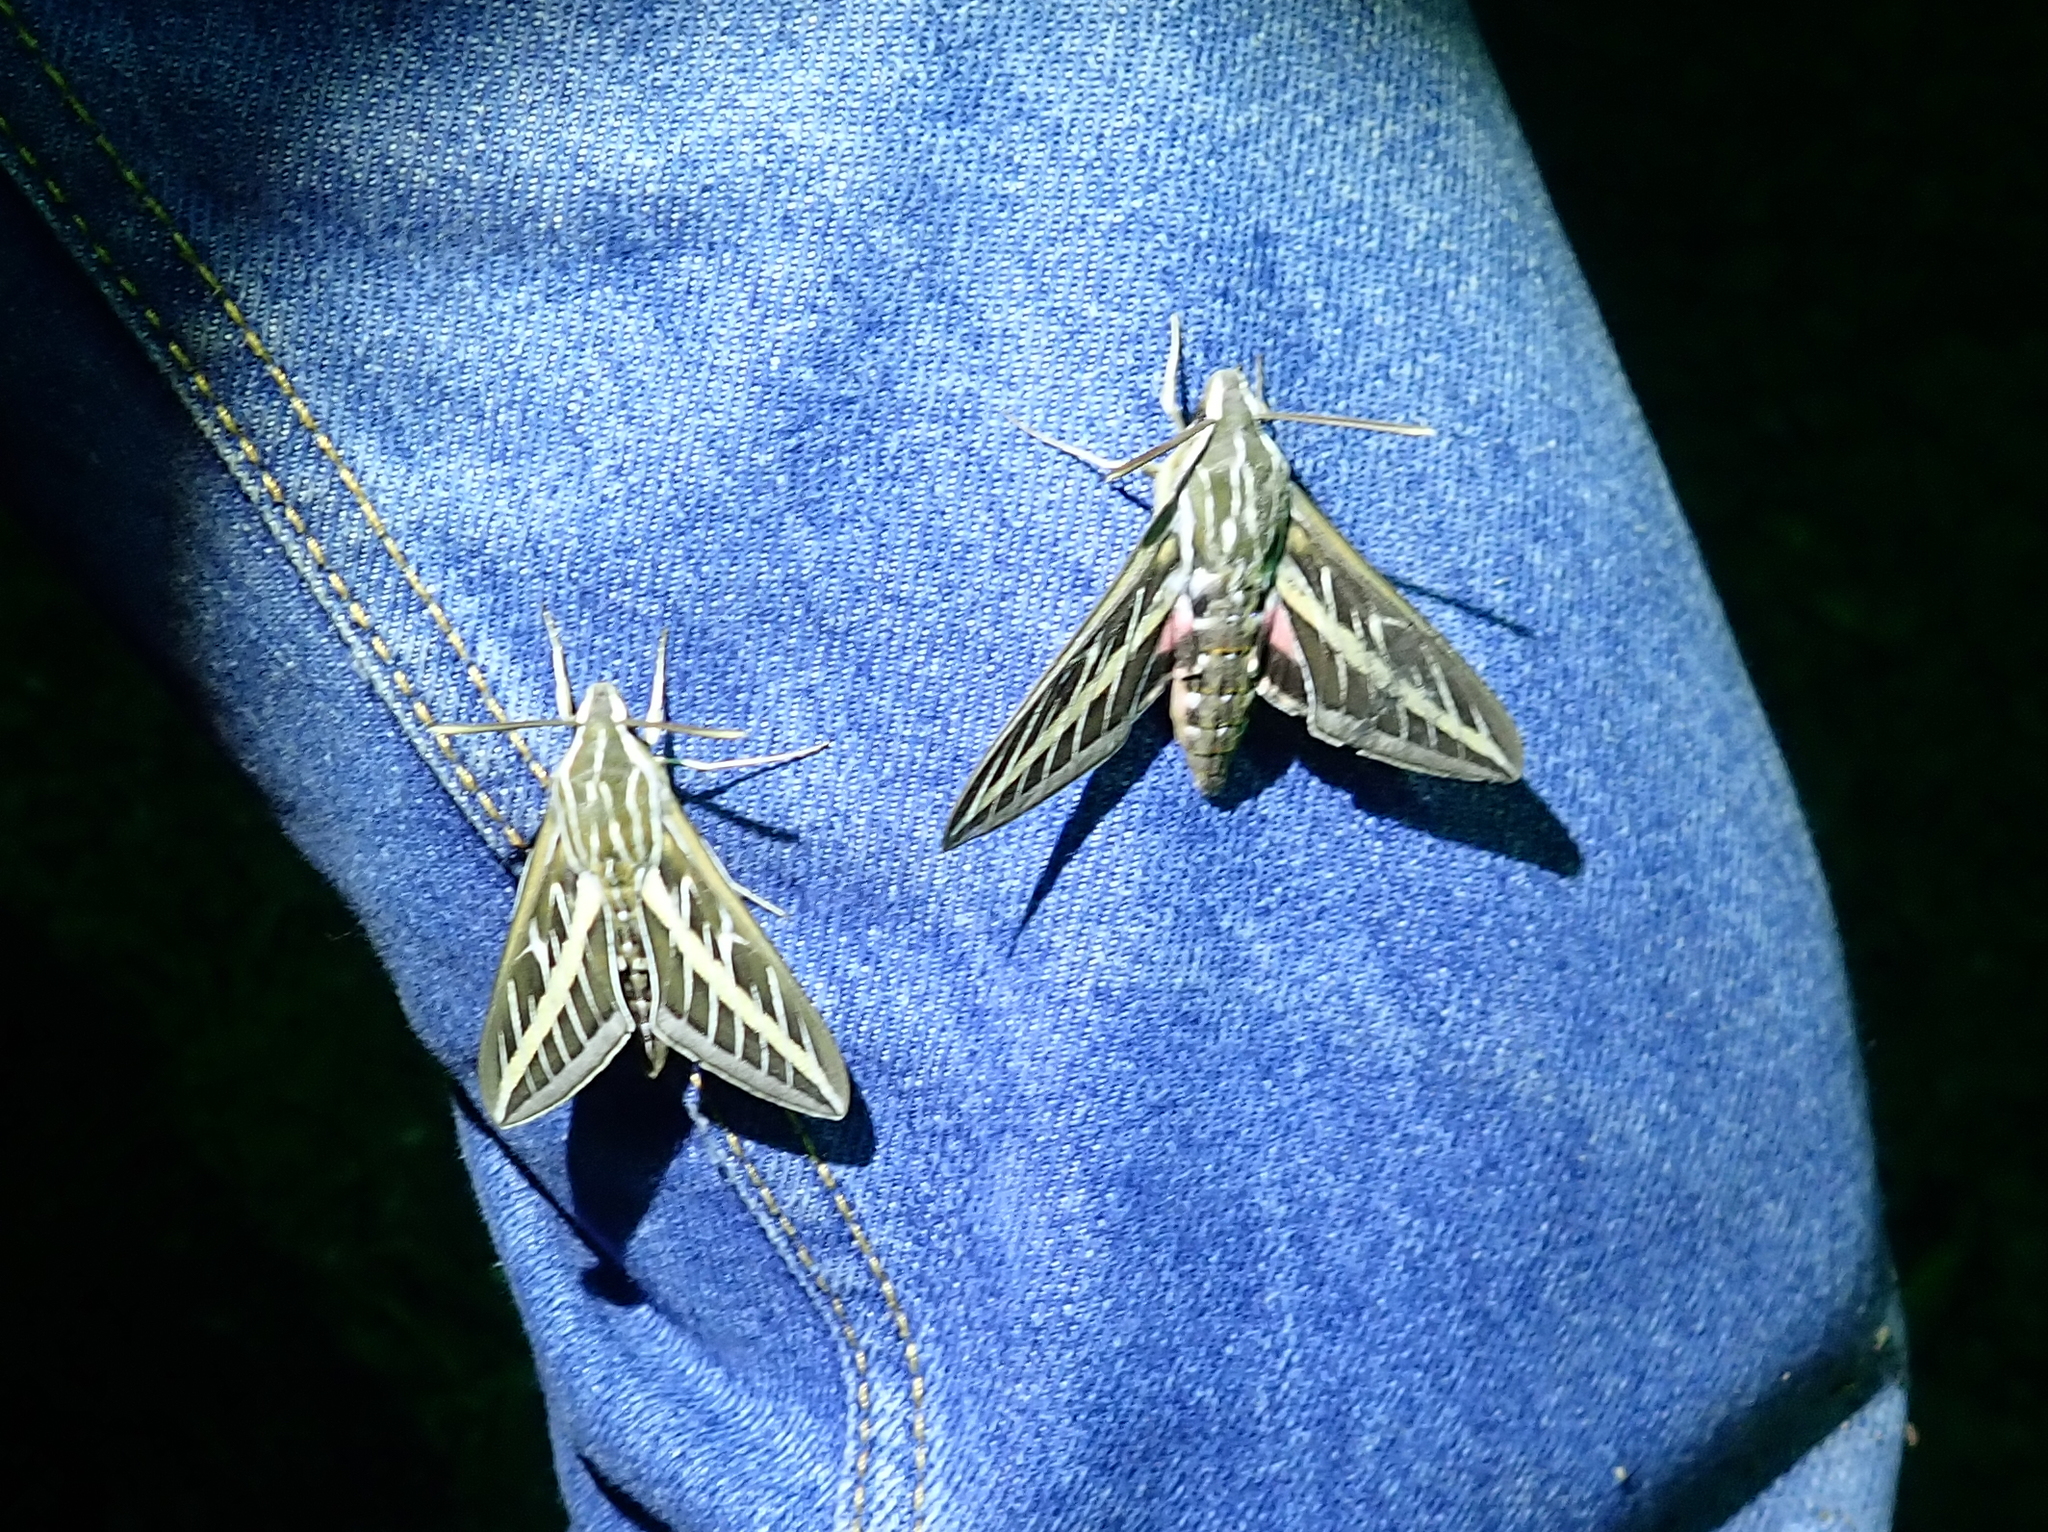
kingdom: Animalia
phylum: Arthropoda
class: Insecta
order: Lepidoptera
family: Sphingidae
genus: Hyles
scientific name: Hyles lineata
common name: White-lined sphinx
